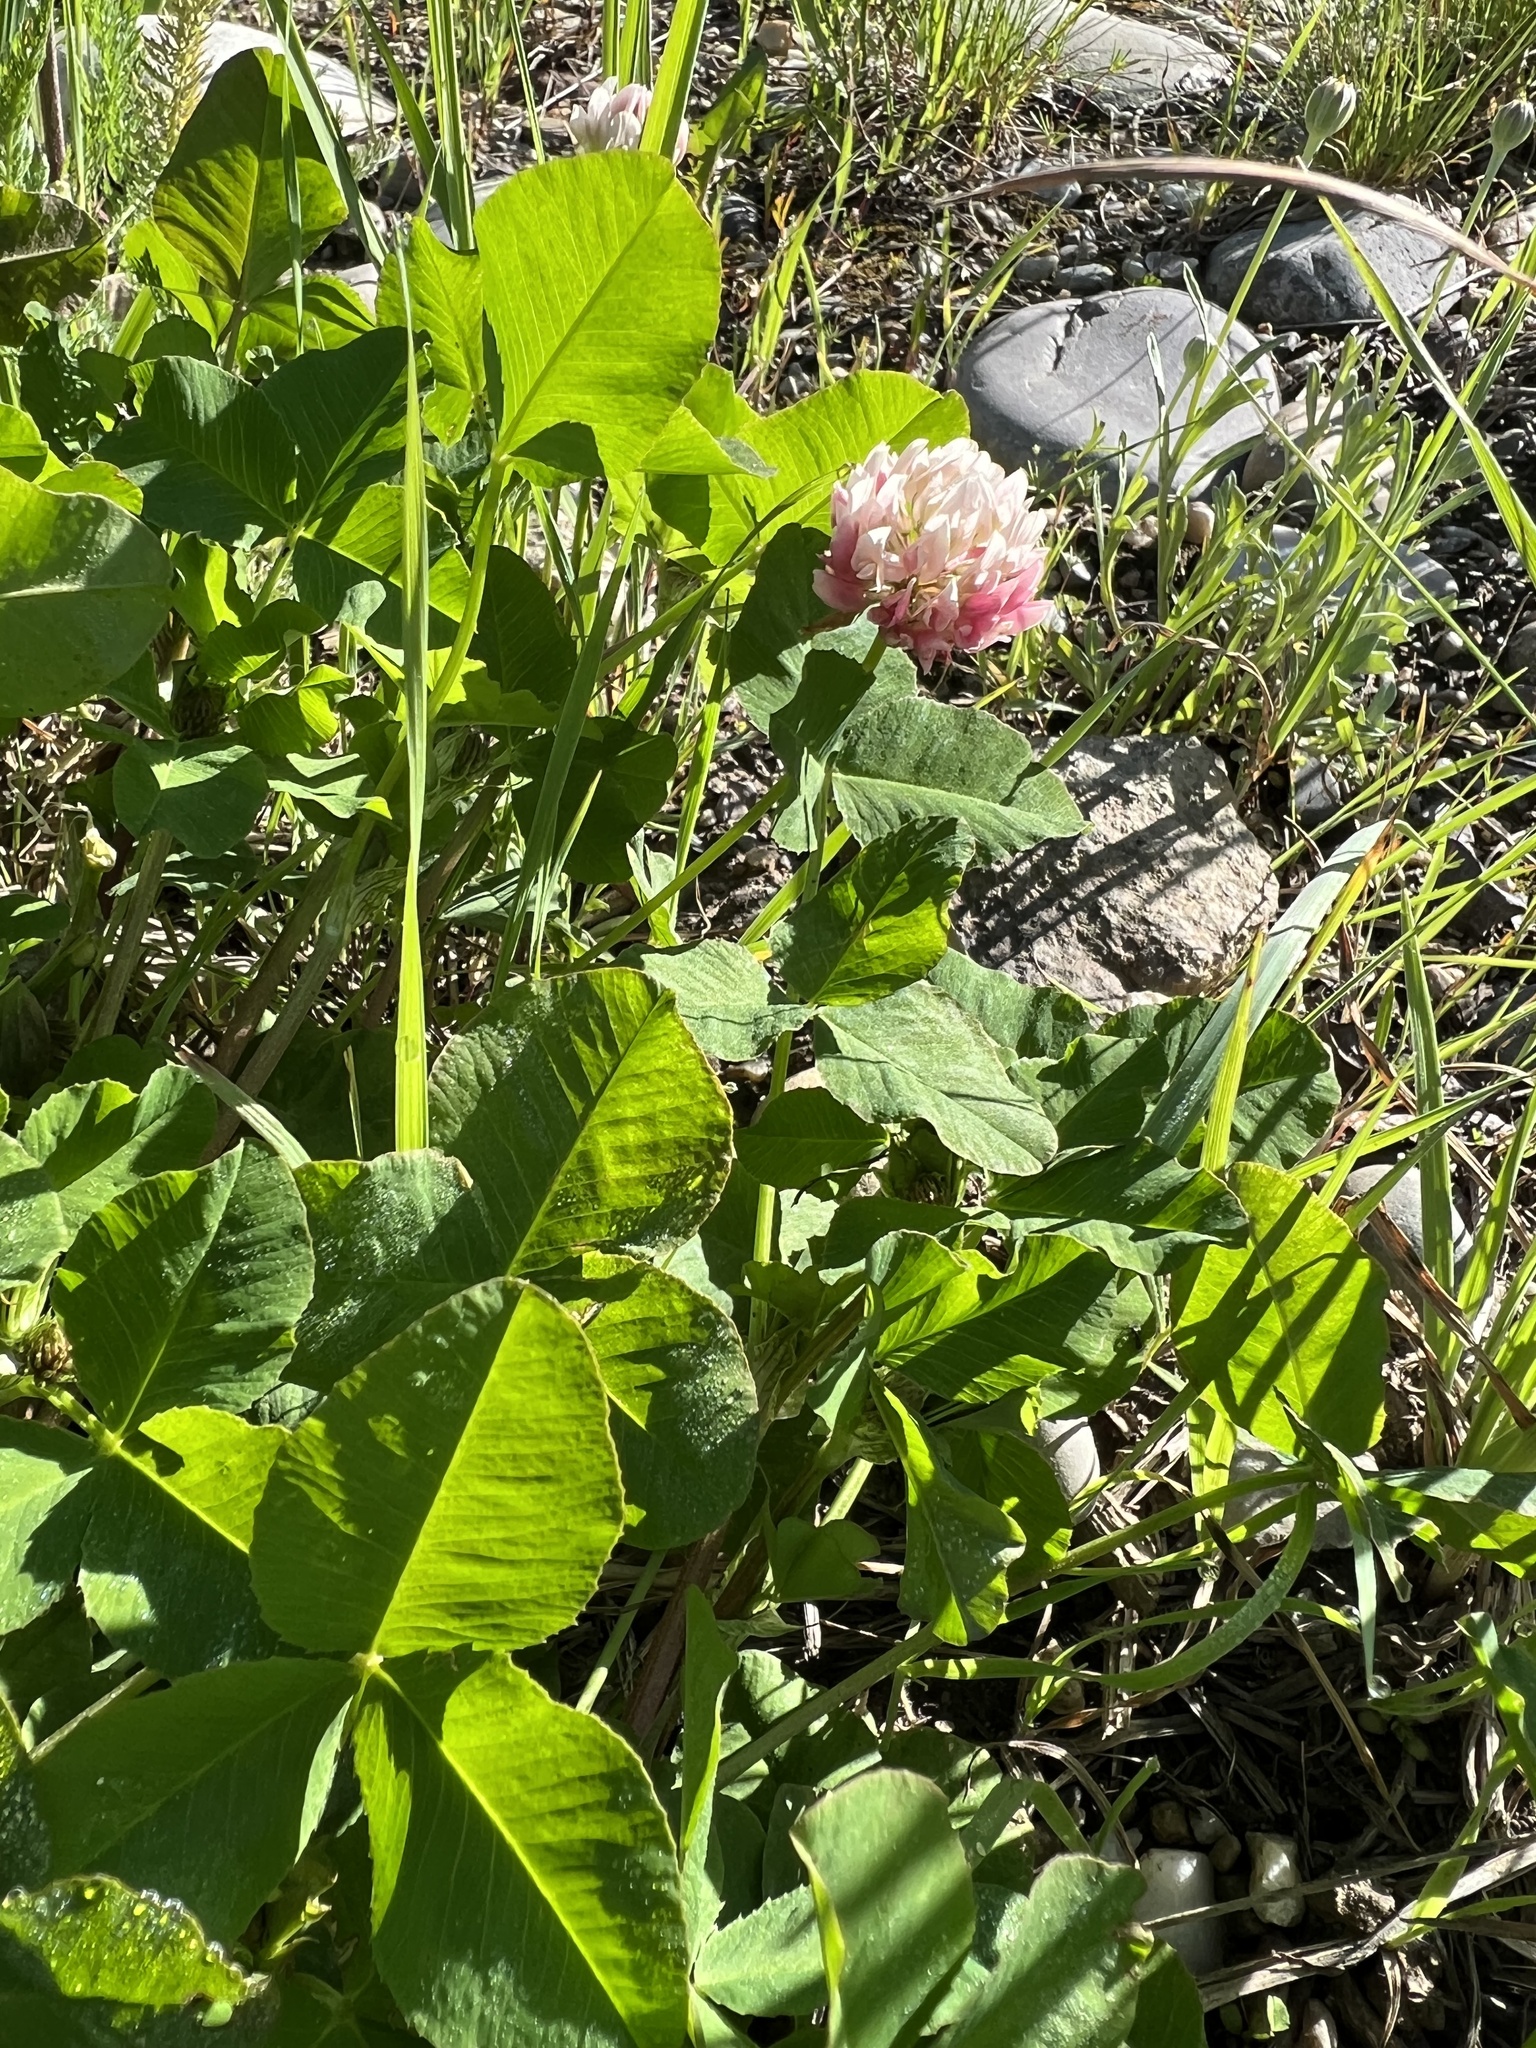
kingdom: Plantae
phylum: Tracheophyta
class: Magnoliopsida
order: Fabales
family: Fabaceae
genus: Trifolium
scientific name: Trifolium hybridum
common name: Alsike clover
